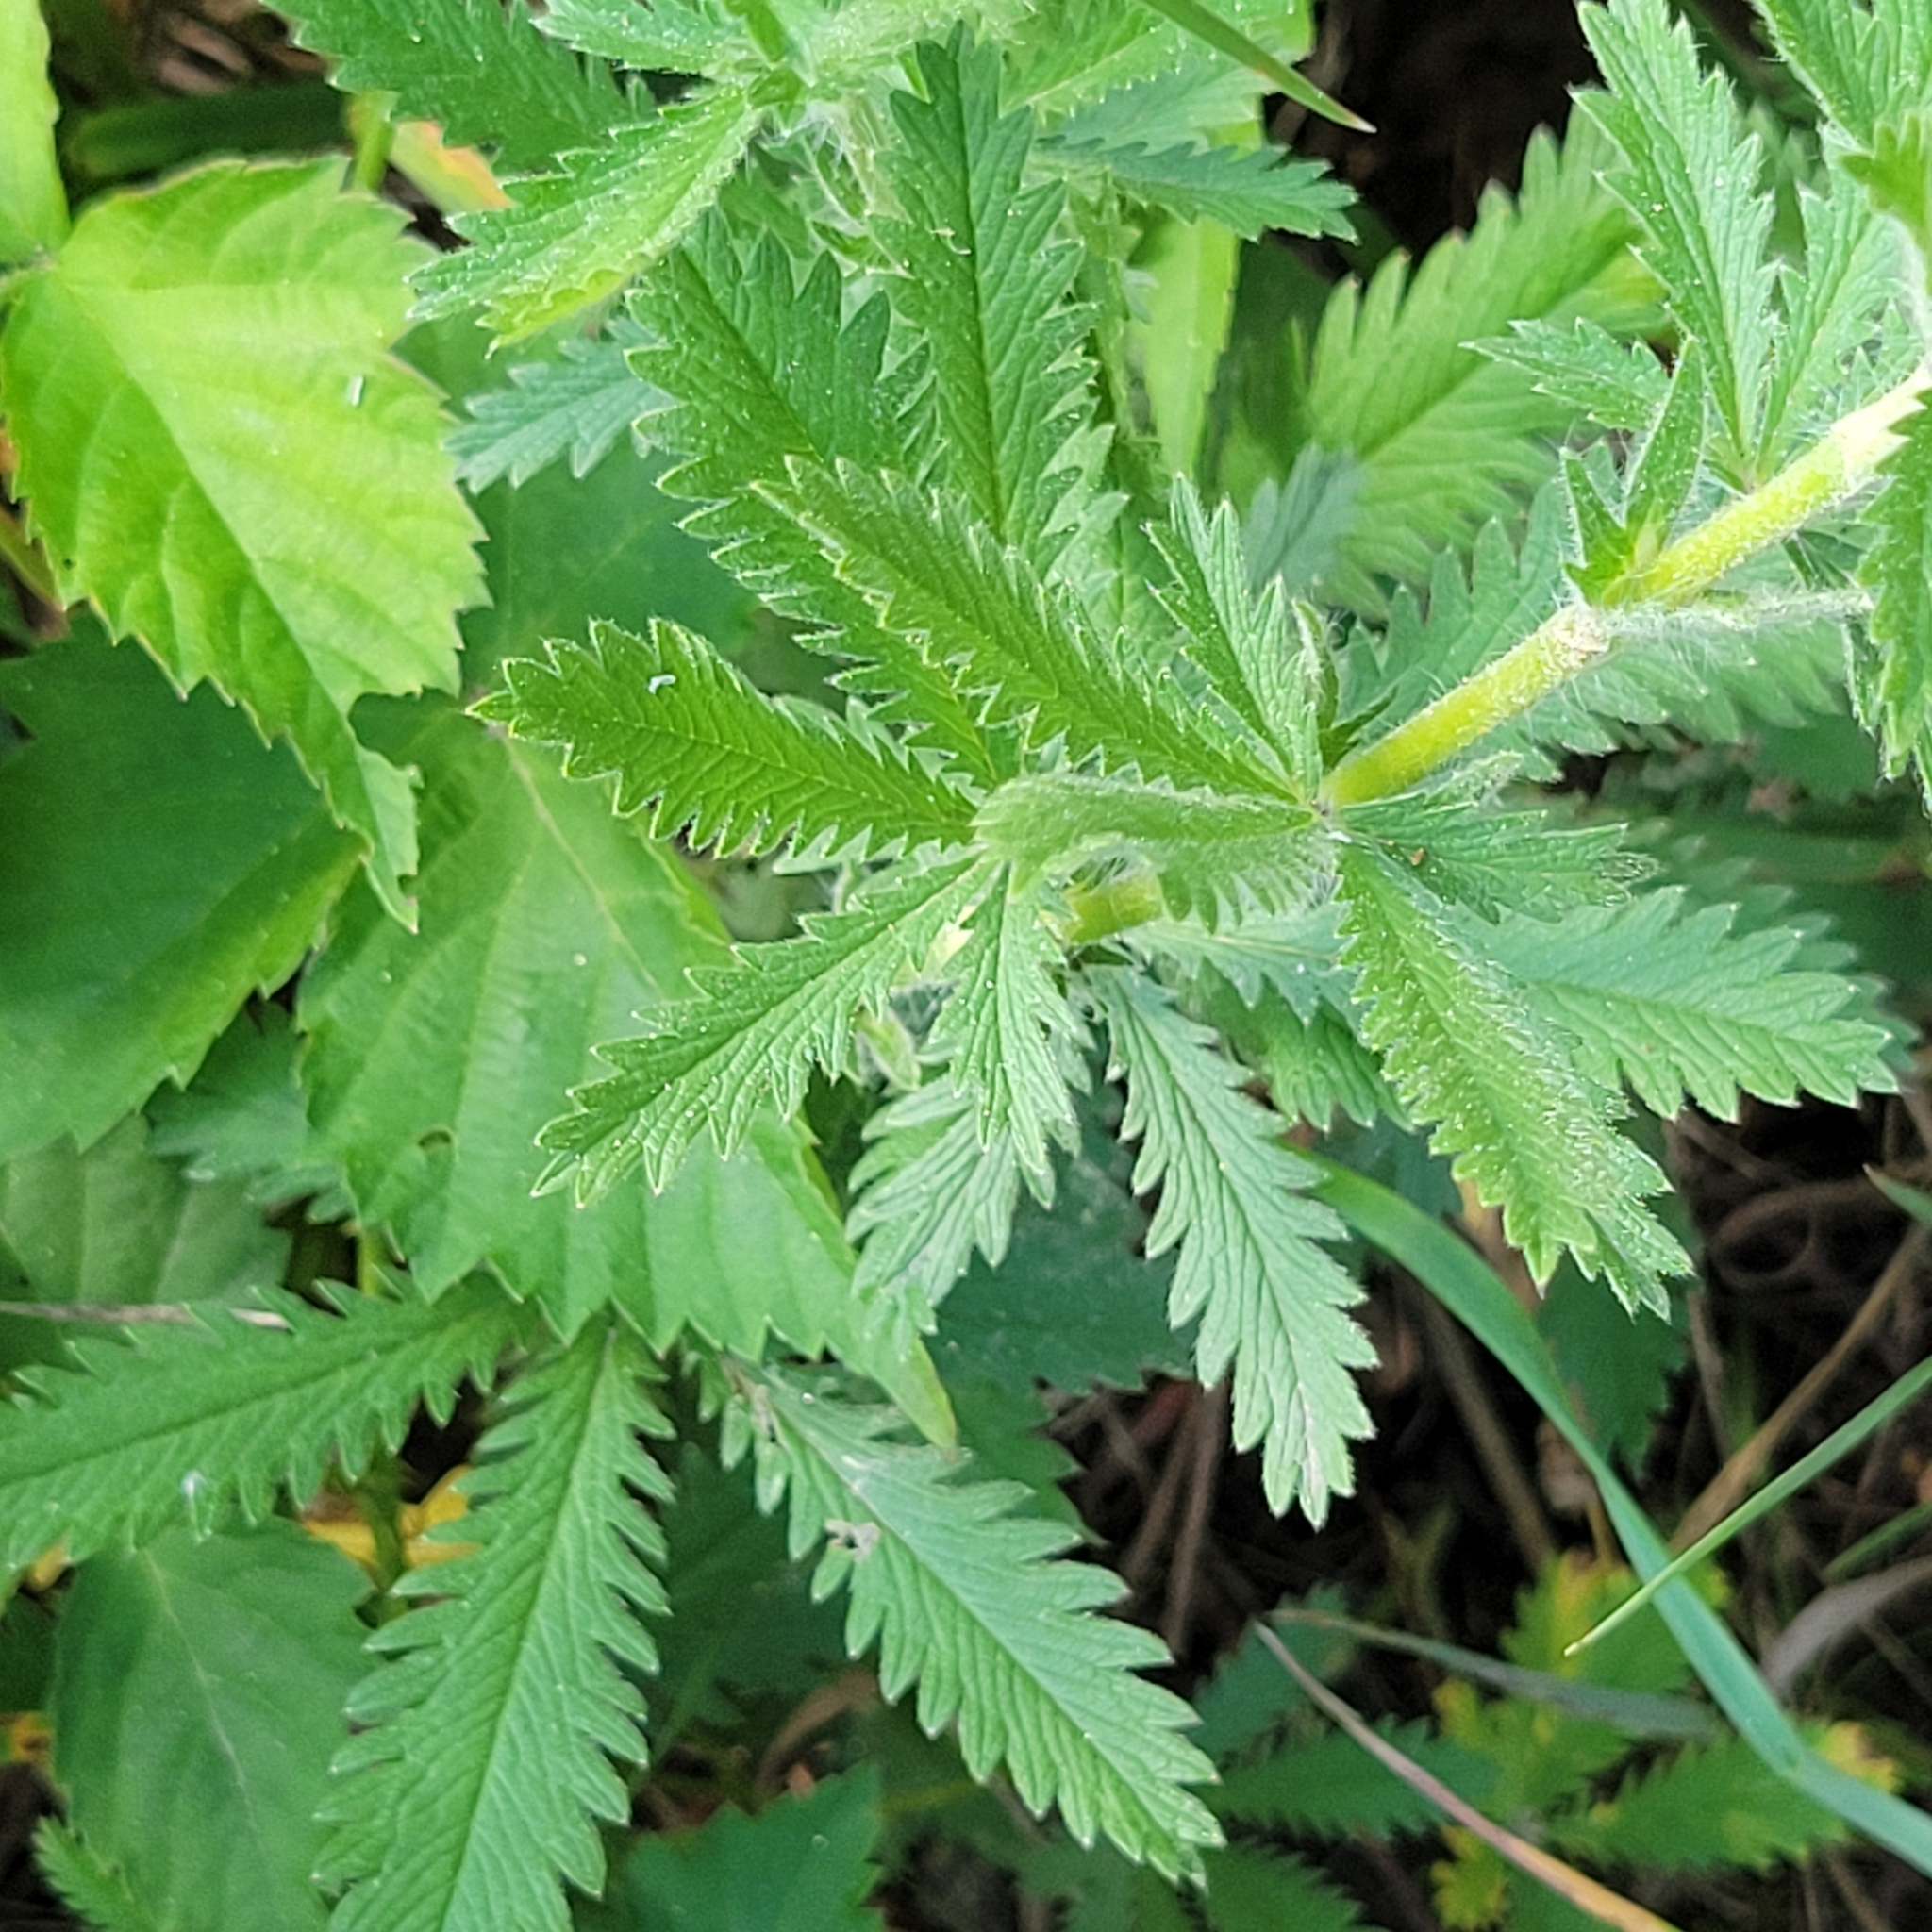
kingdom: Plantae
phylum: Tracheophyta
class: Magnoliopsida
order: Rosales
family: Rosaceae
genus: Potentilla
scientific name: Potentilla recta
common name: Sulphur cinquefoil
